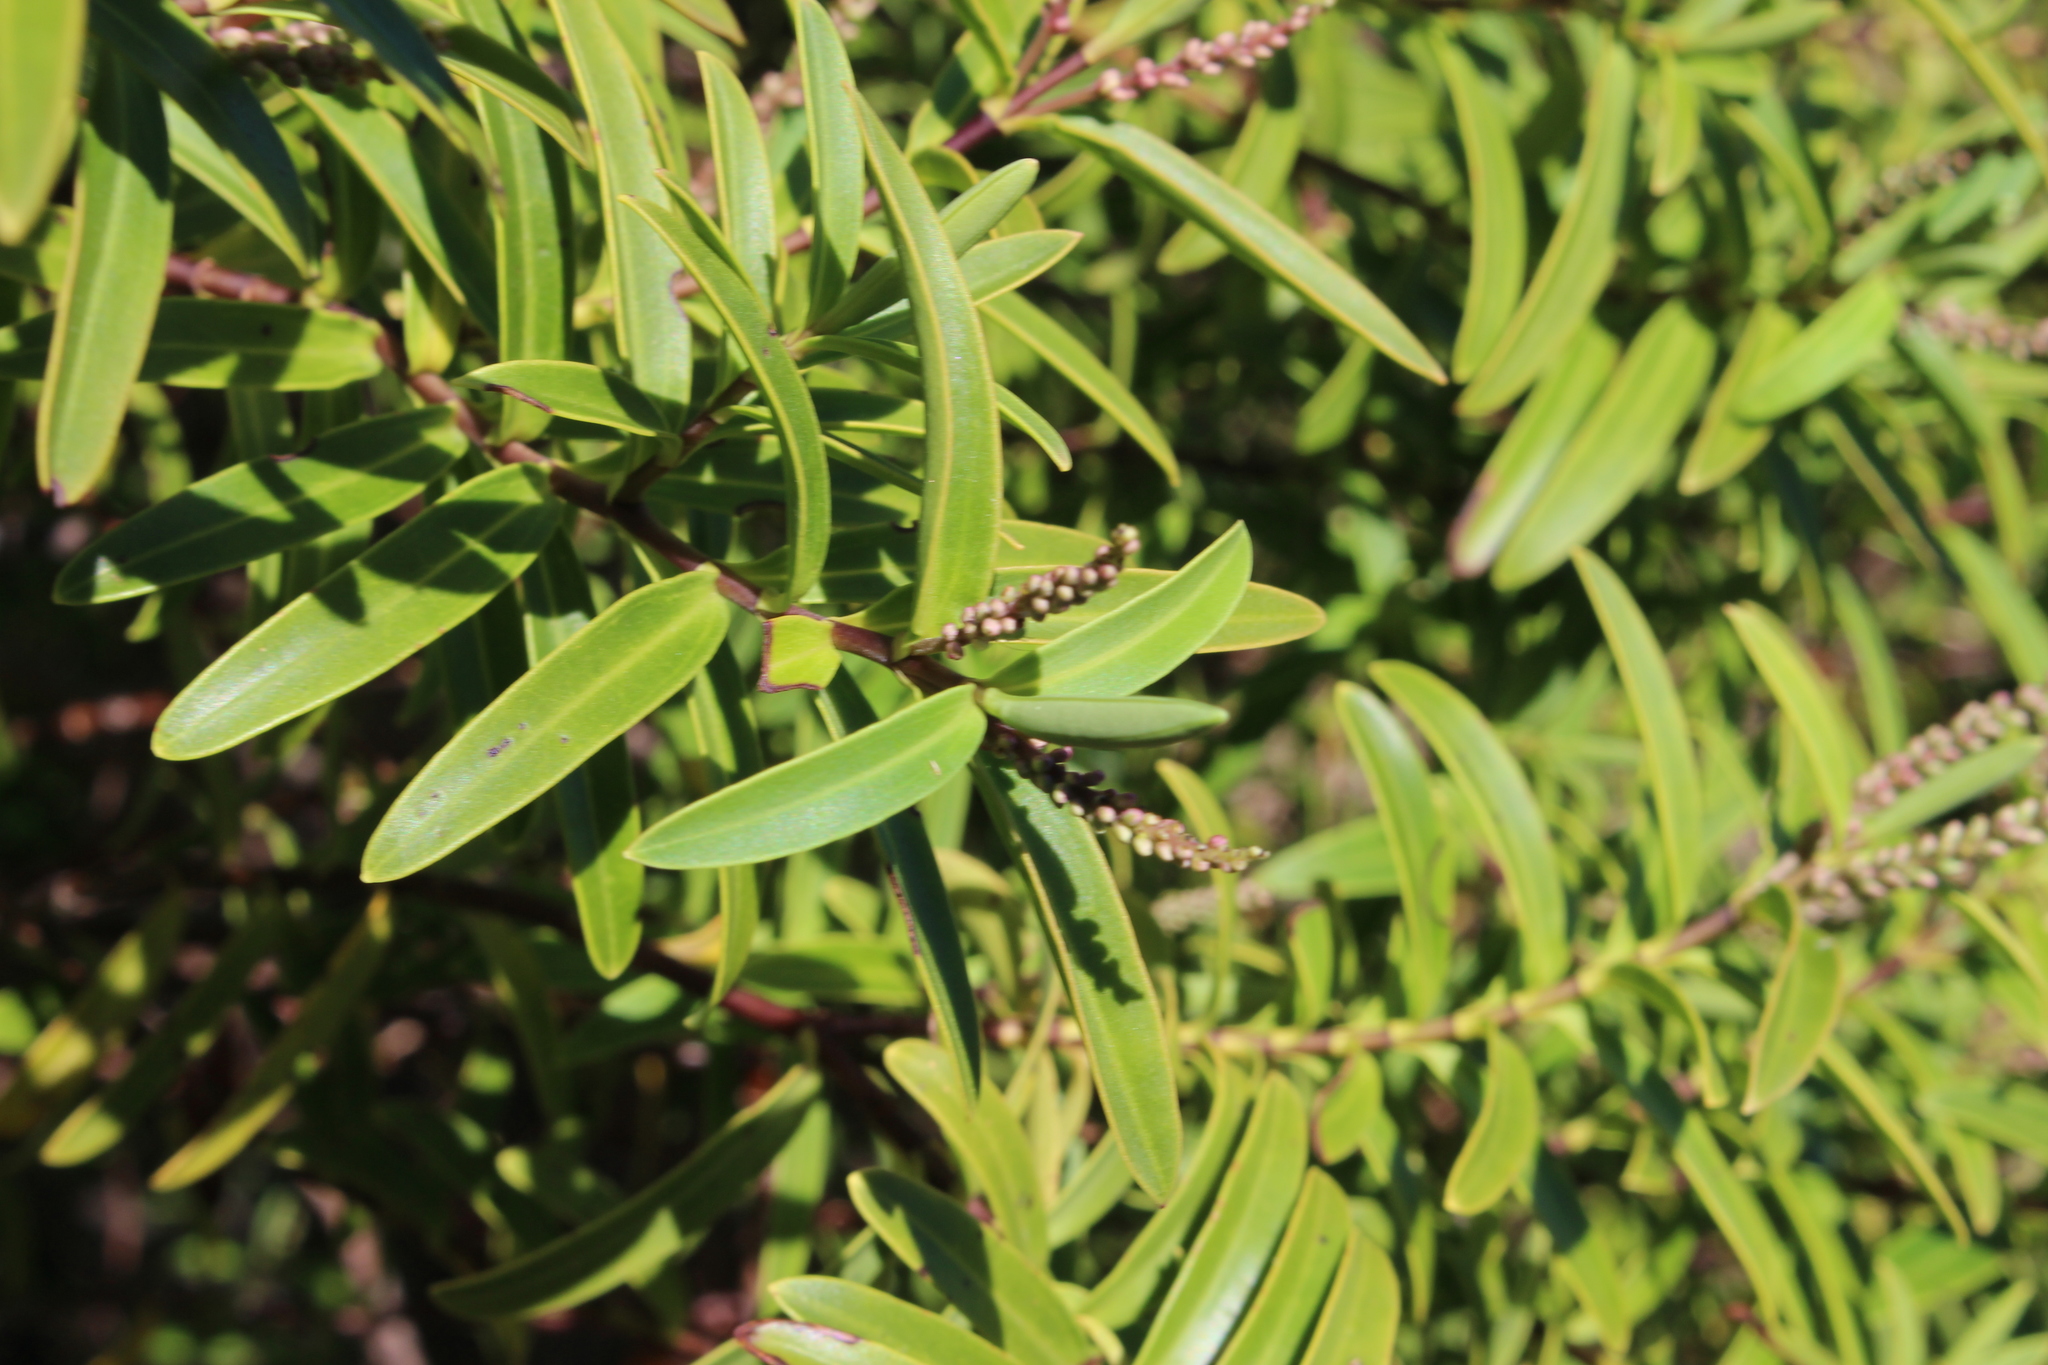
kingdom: Plantae
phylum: Tracheophyta
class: Magnoliopsida
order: Lamiales
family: Plantaginaceae
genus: Veronica
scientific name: Veronica strictissima
